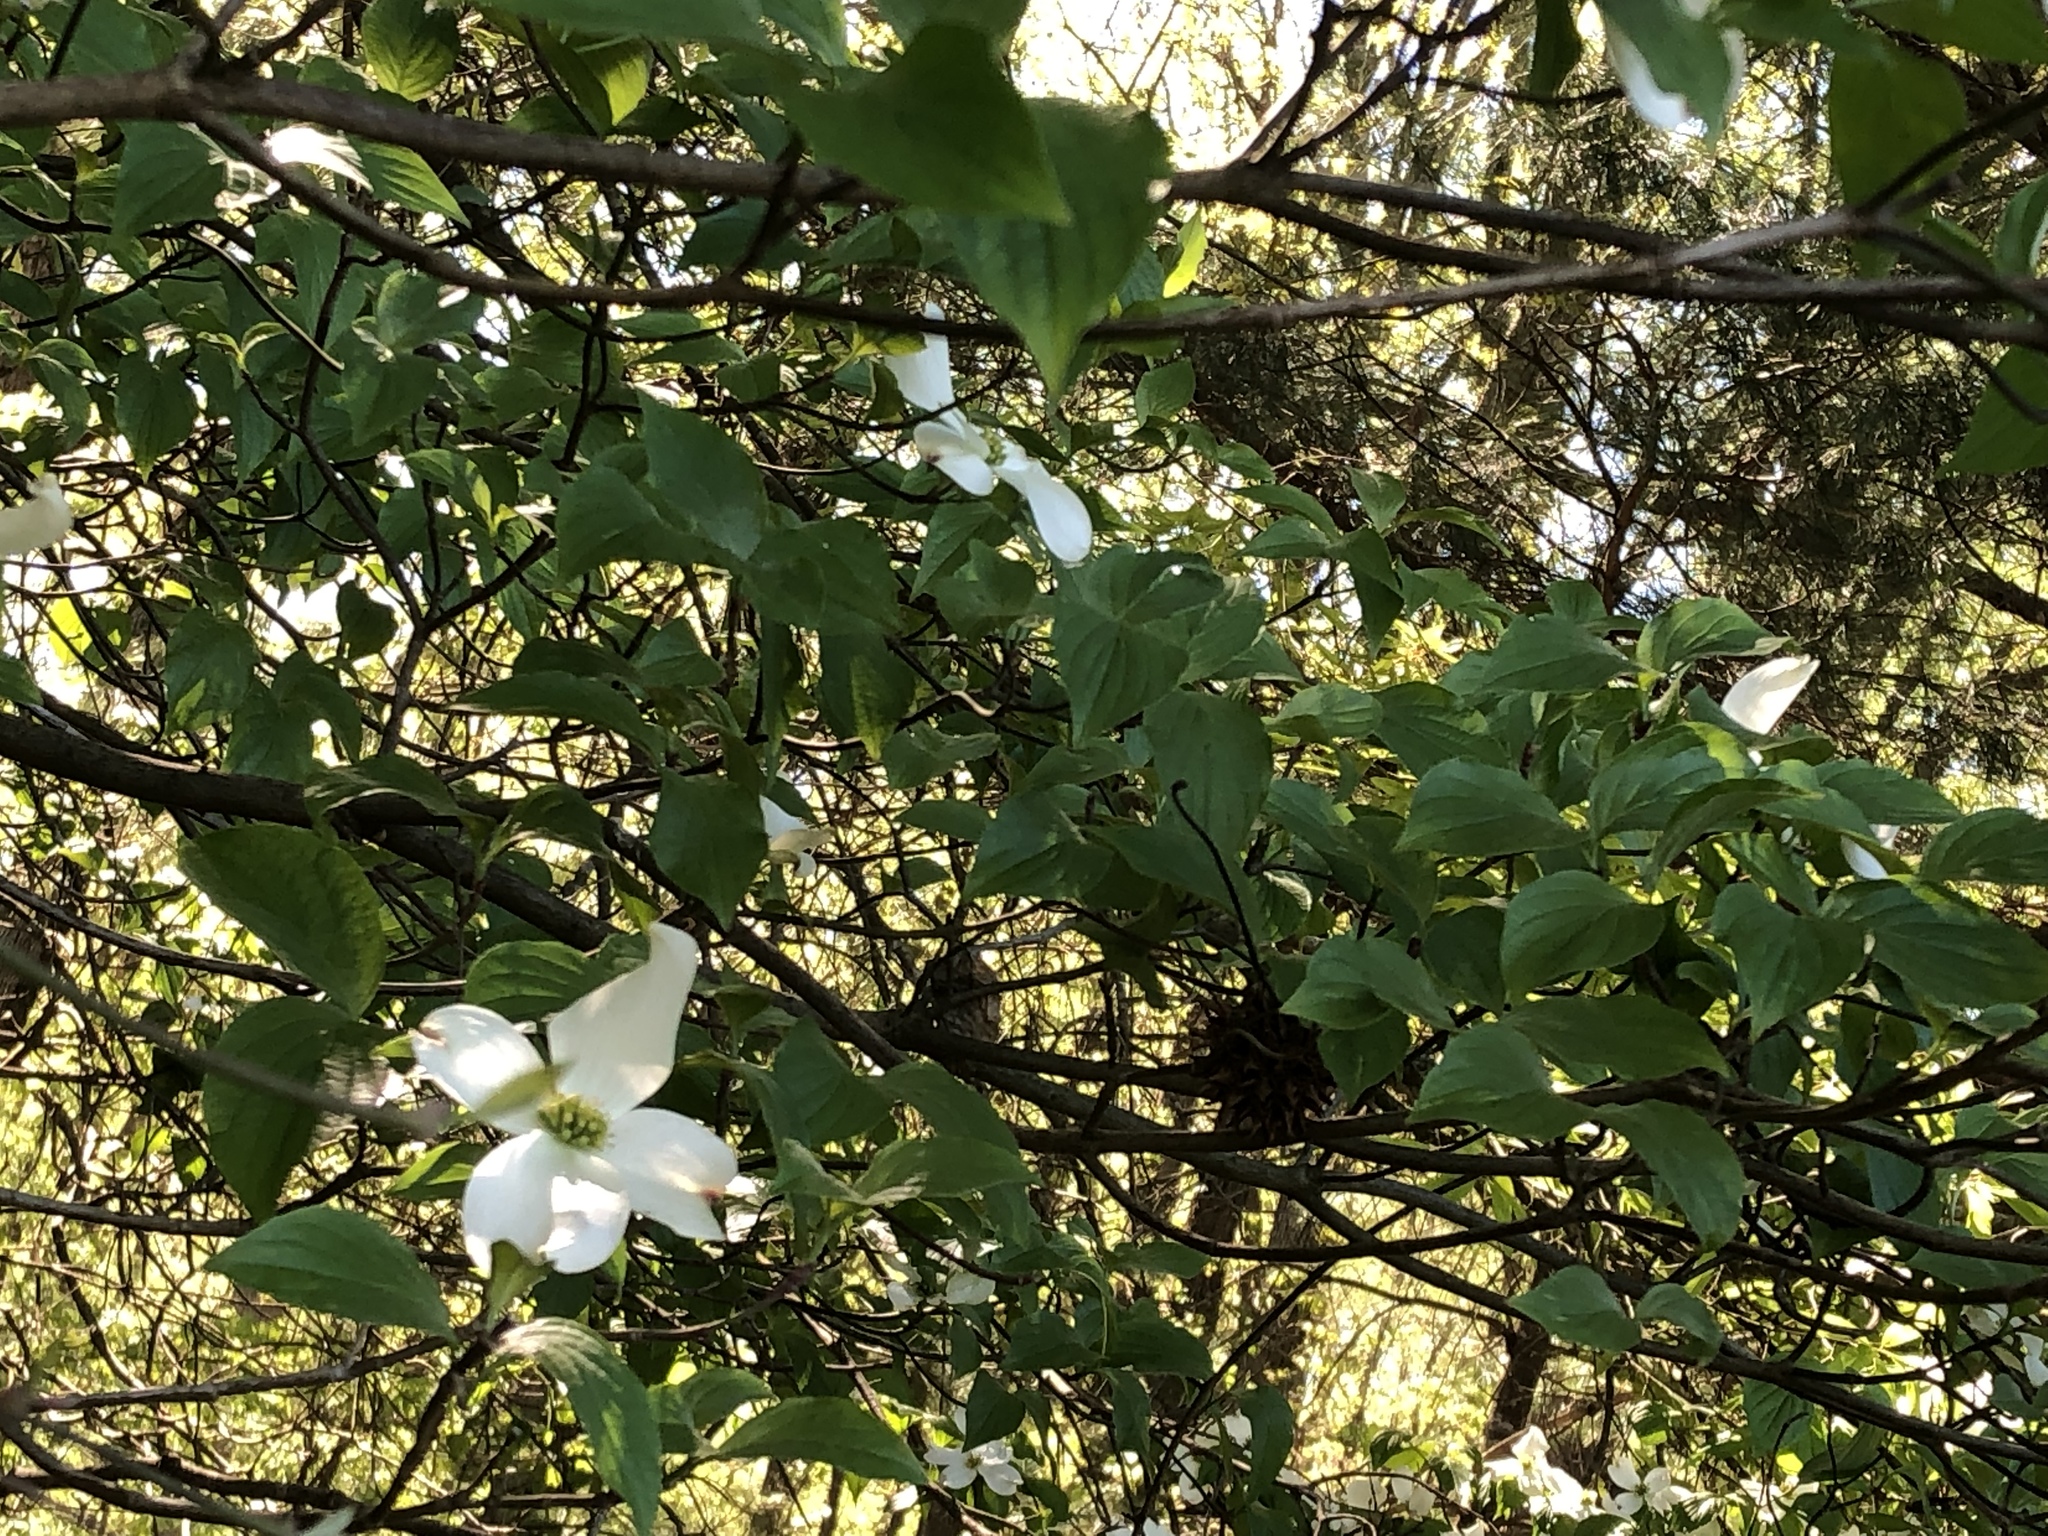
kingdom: Plantae
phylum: Tracheophyta
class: Magnoliopsida
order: Cornales
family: Cornaceae
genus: Cornus
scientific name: Cornus florida
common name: Flowering dogwood
